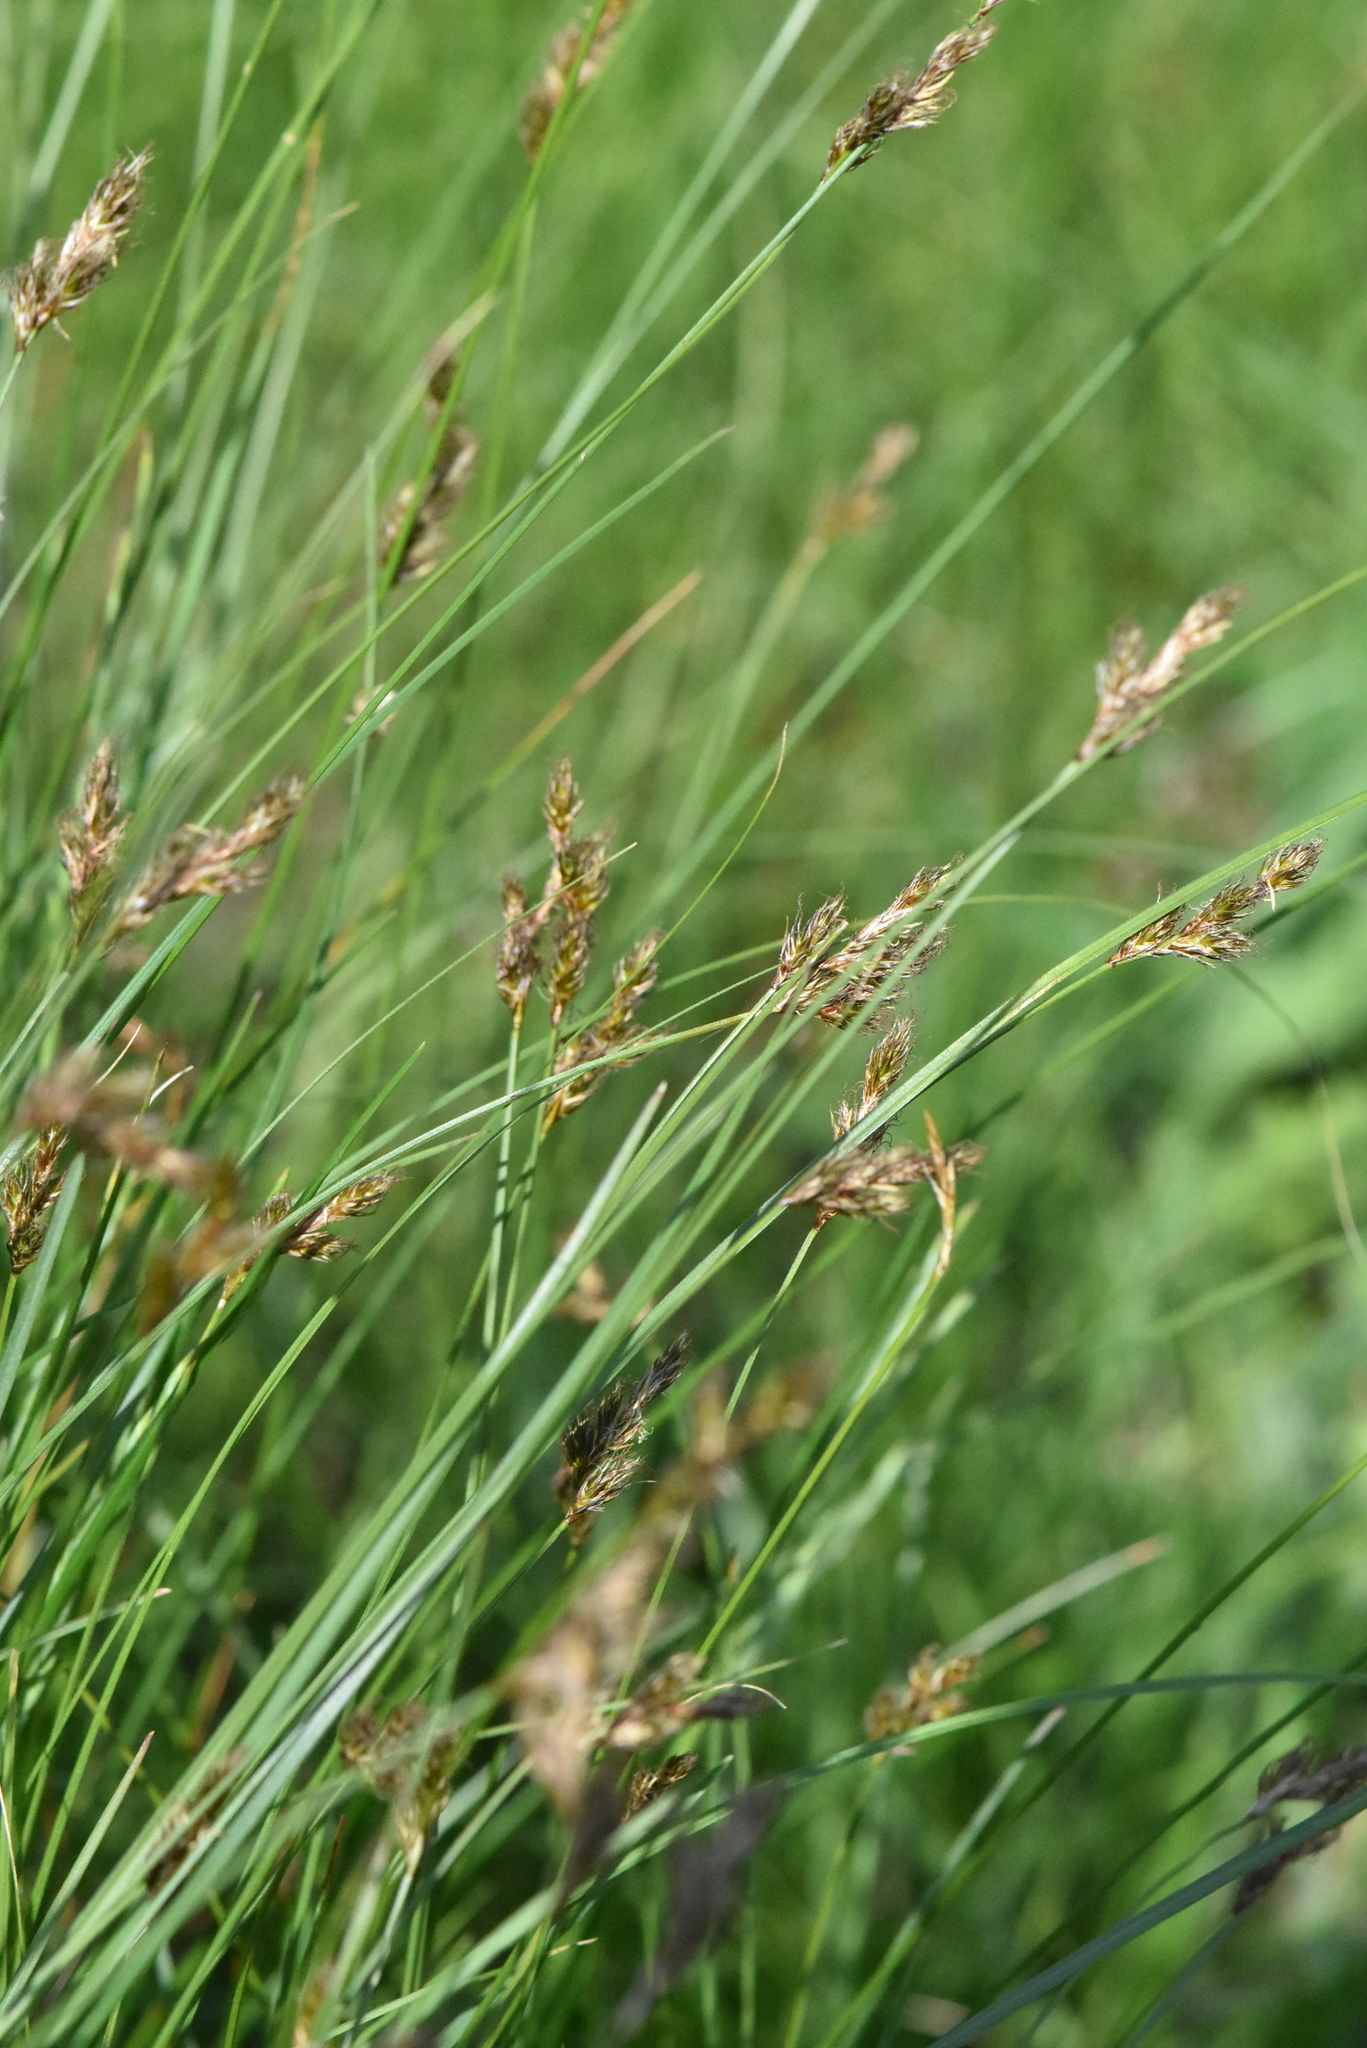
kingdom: Plantae
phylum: Tracheophyta
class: Liliopsida
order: Poales
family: Cyperaceae
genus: Carex
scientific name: Carex praecox
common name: Early sedge
